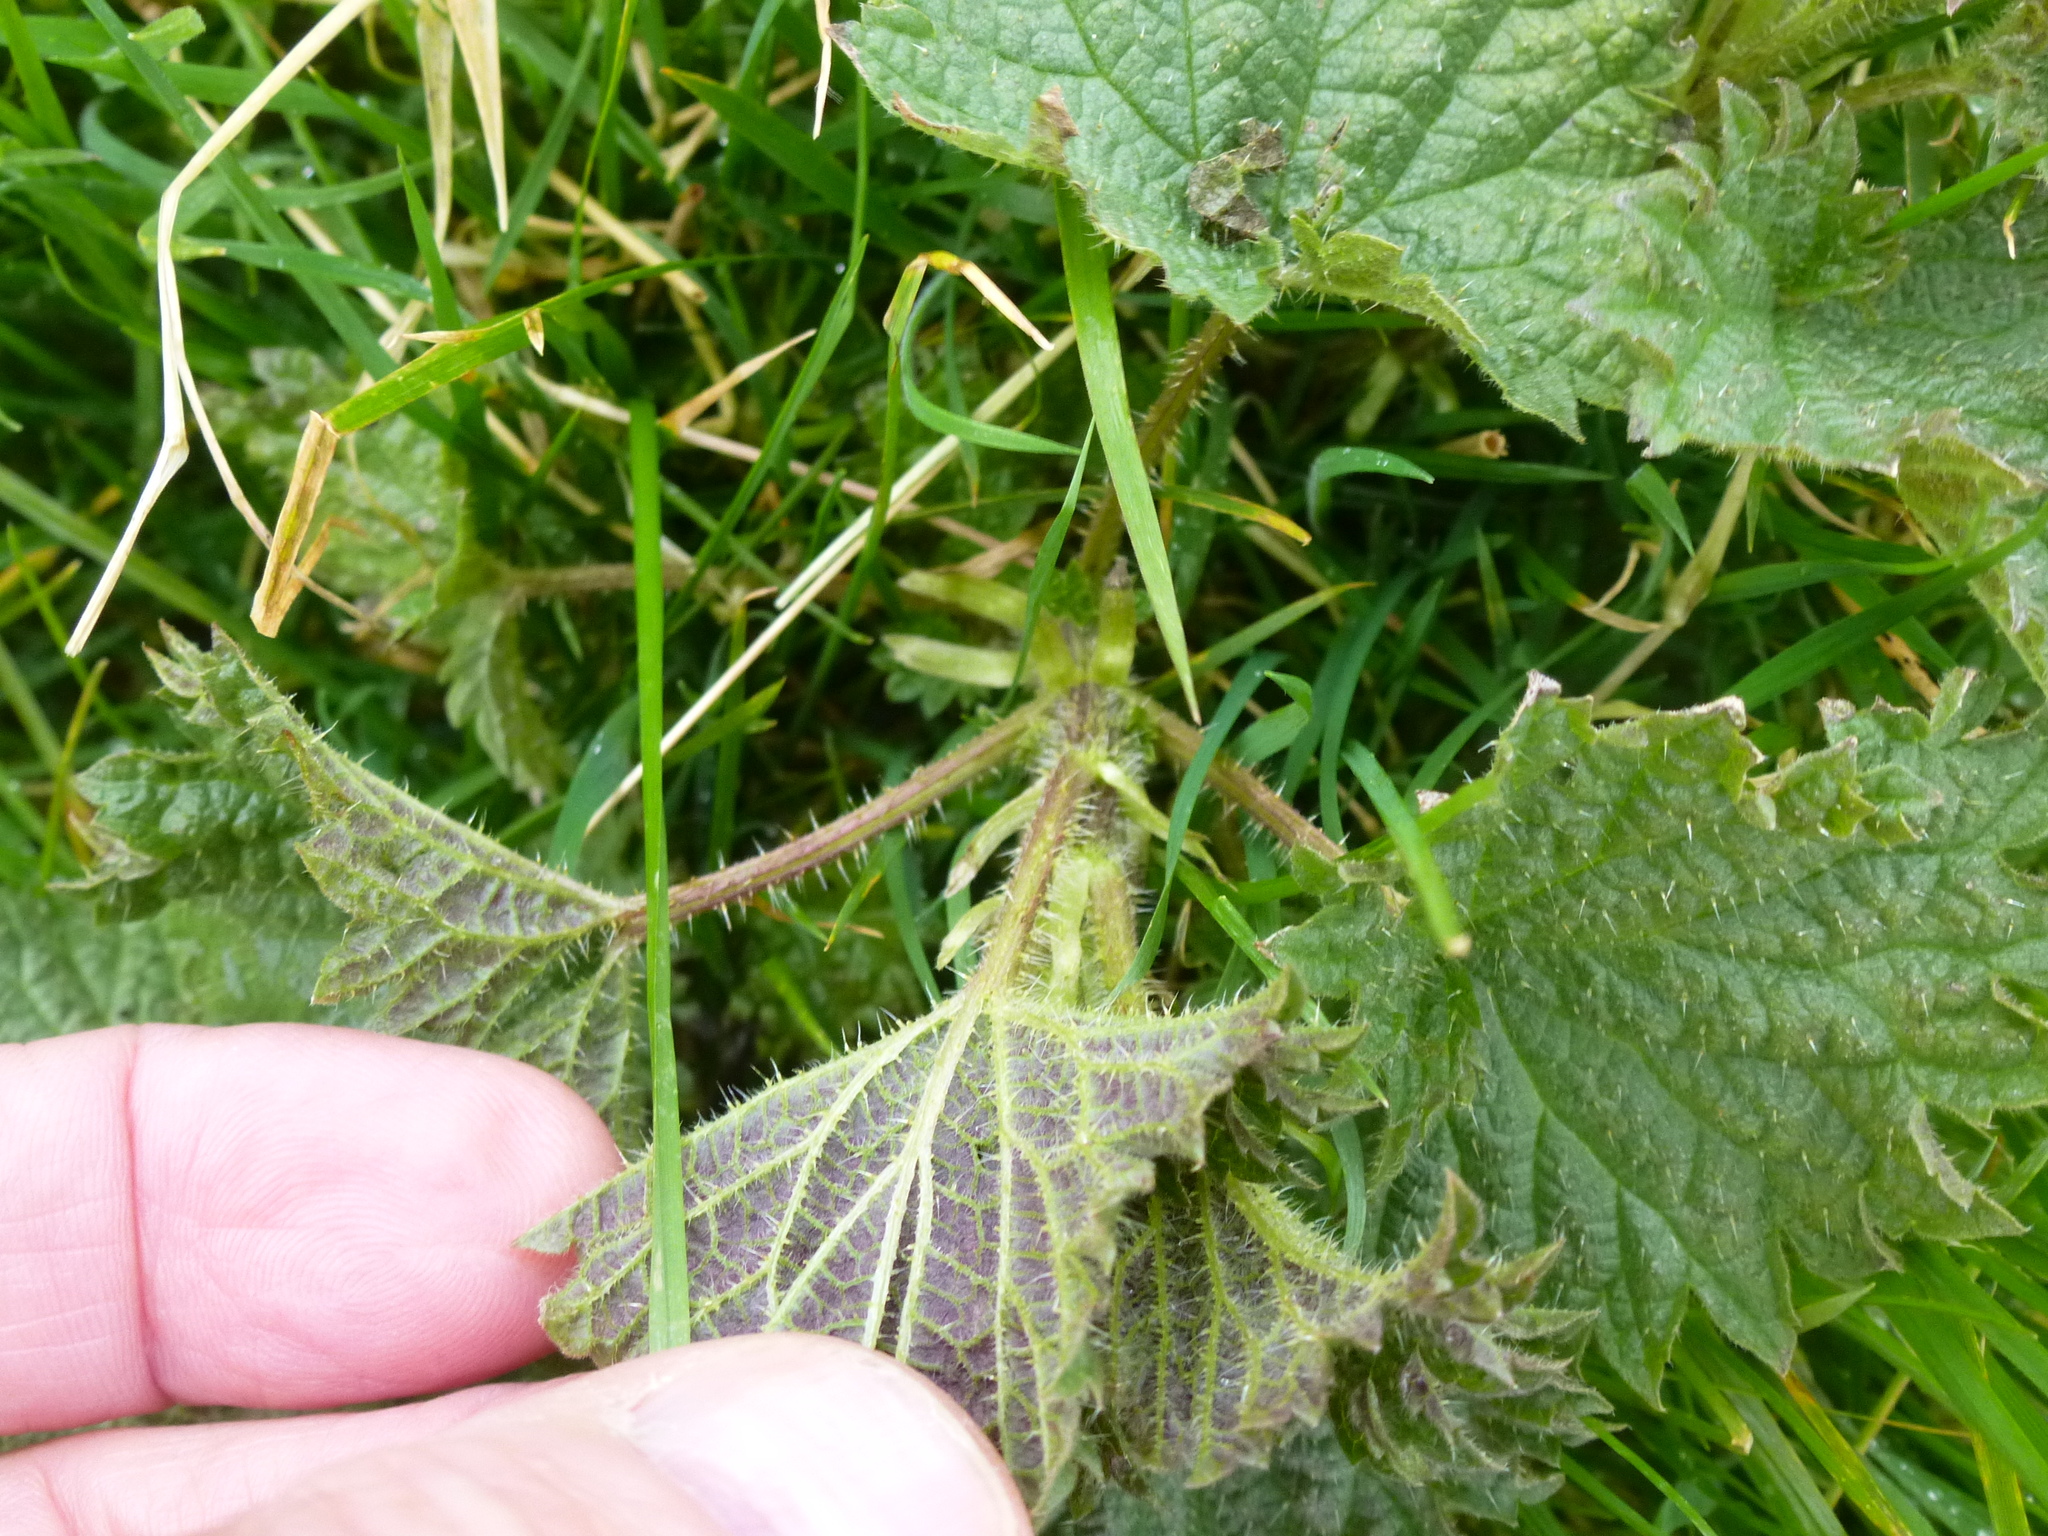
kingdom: Plantae
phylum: Tracheophyta
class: Magnoliopsida
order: Rosales
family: Urticaceae
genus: Urtica
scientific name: Urtica dioica
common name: Common nettle
